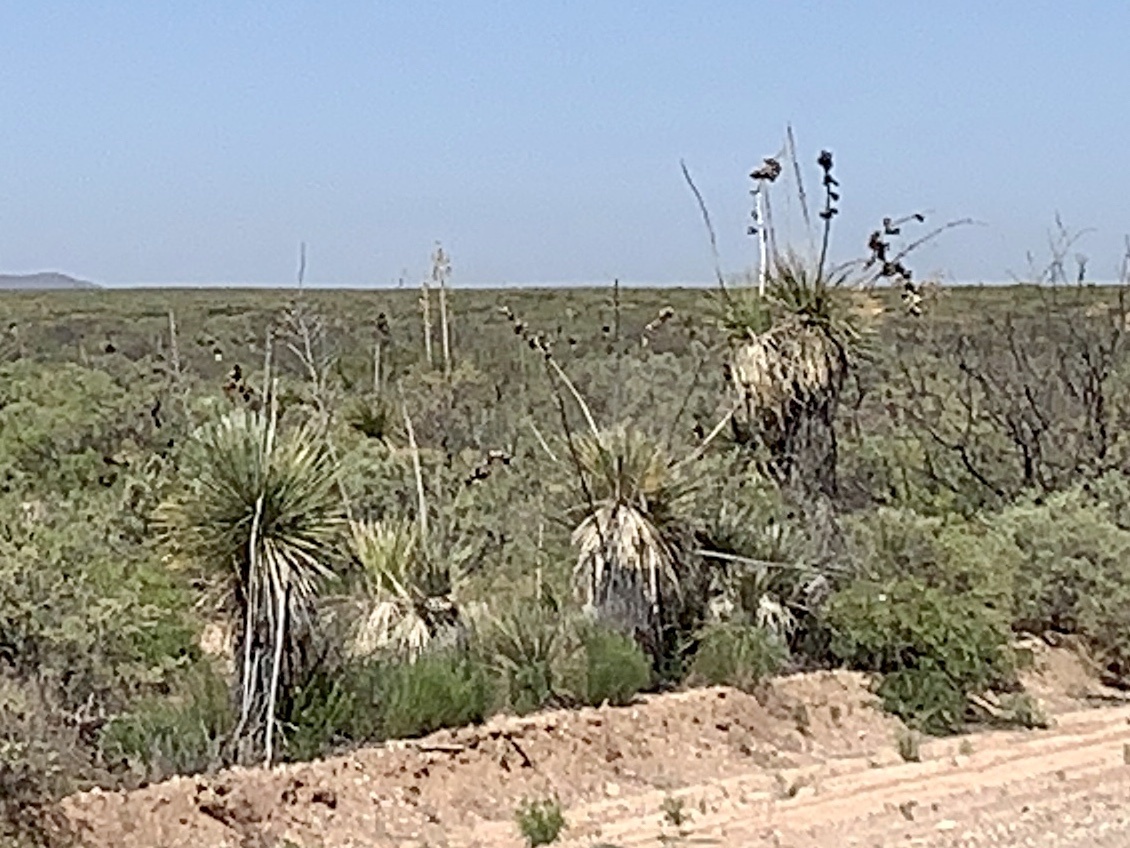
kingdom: Plantae
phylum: Tracheophyta
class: Liliopsida
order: Asparagales
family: Asparagaceae
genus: Yucca
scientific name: Yucca elata
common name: Palmella
